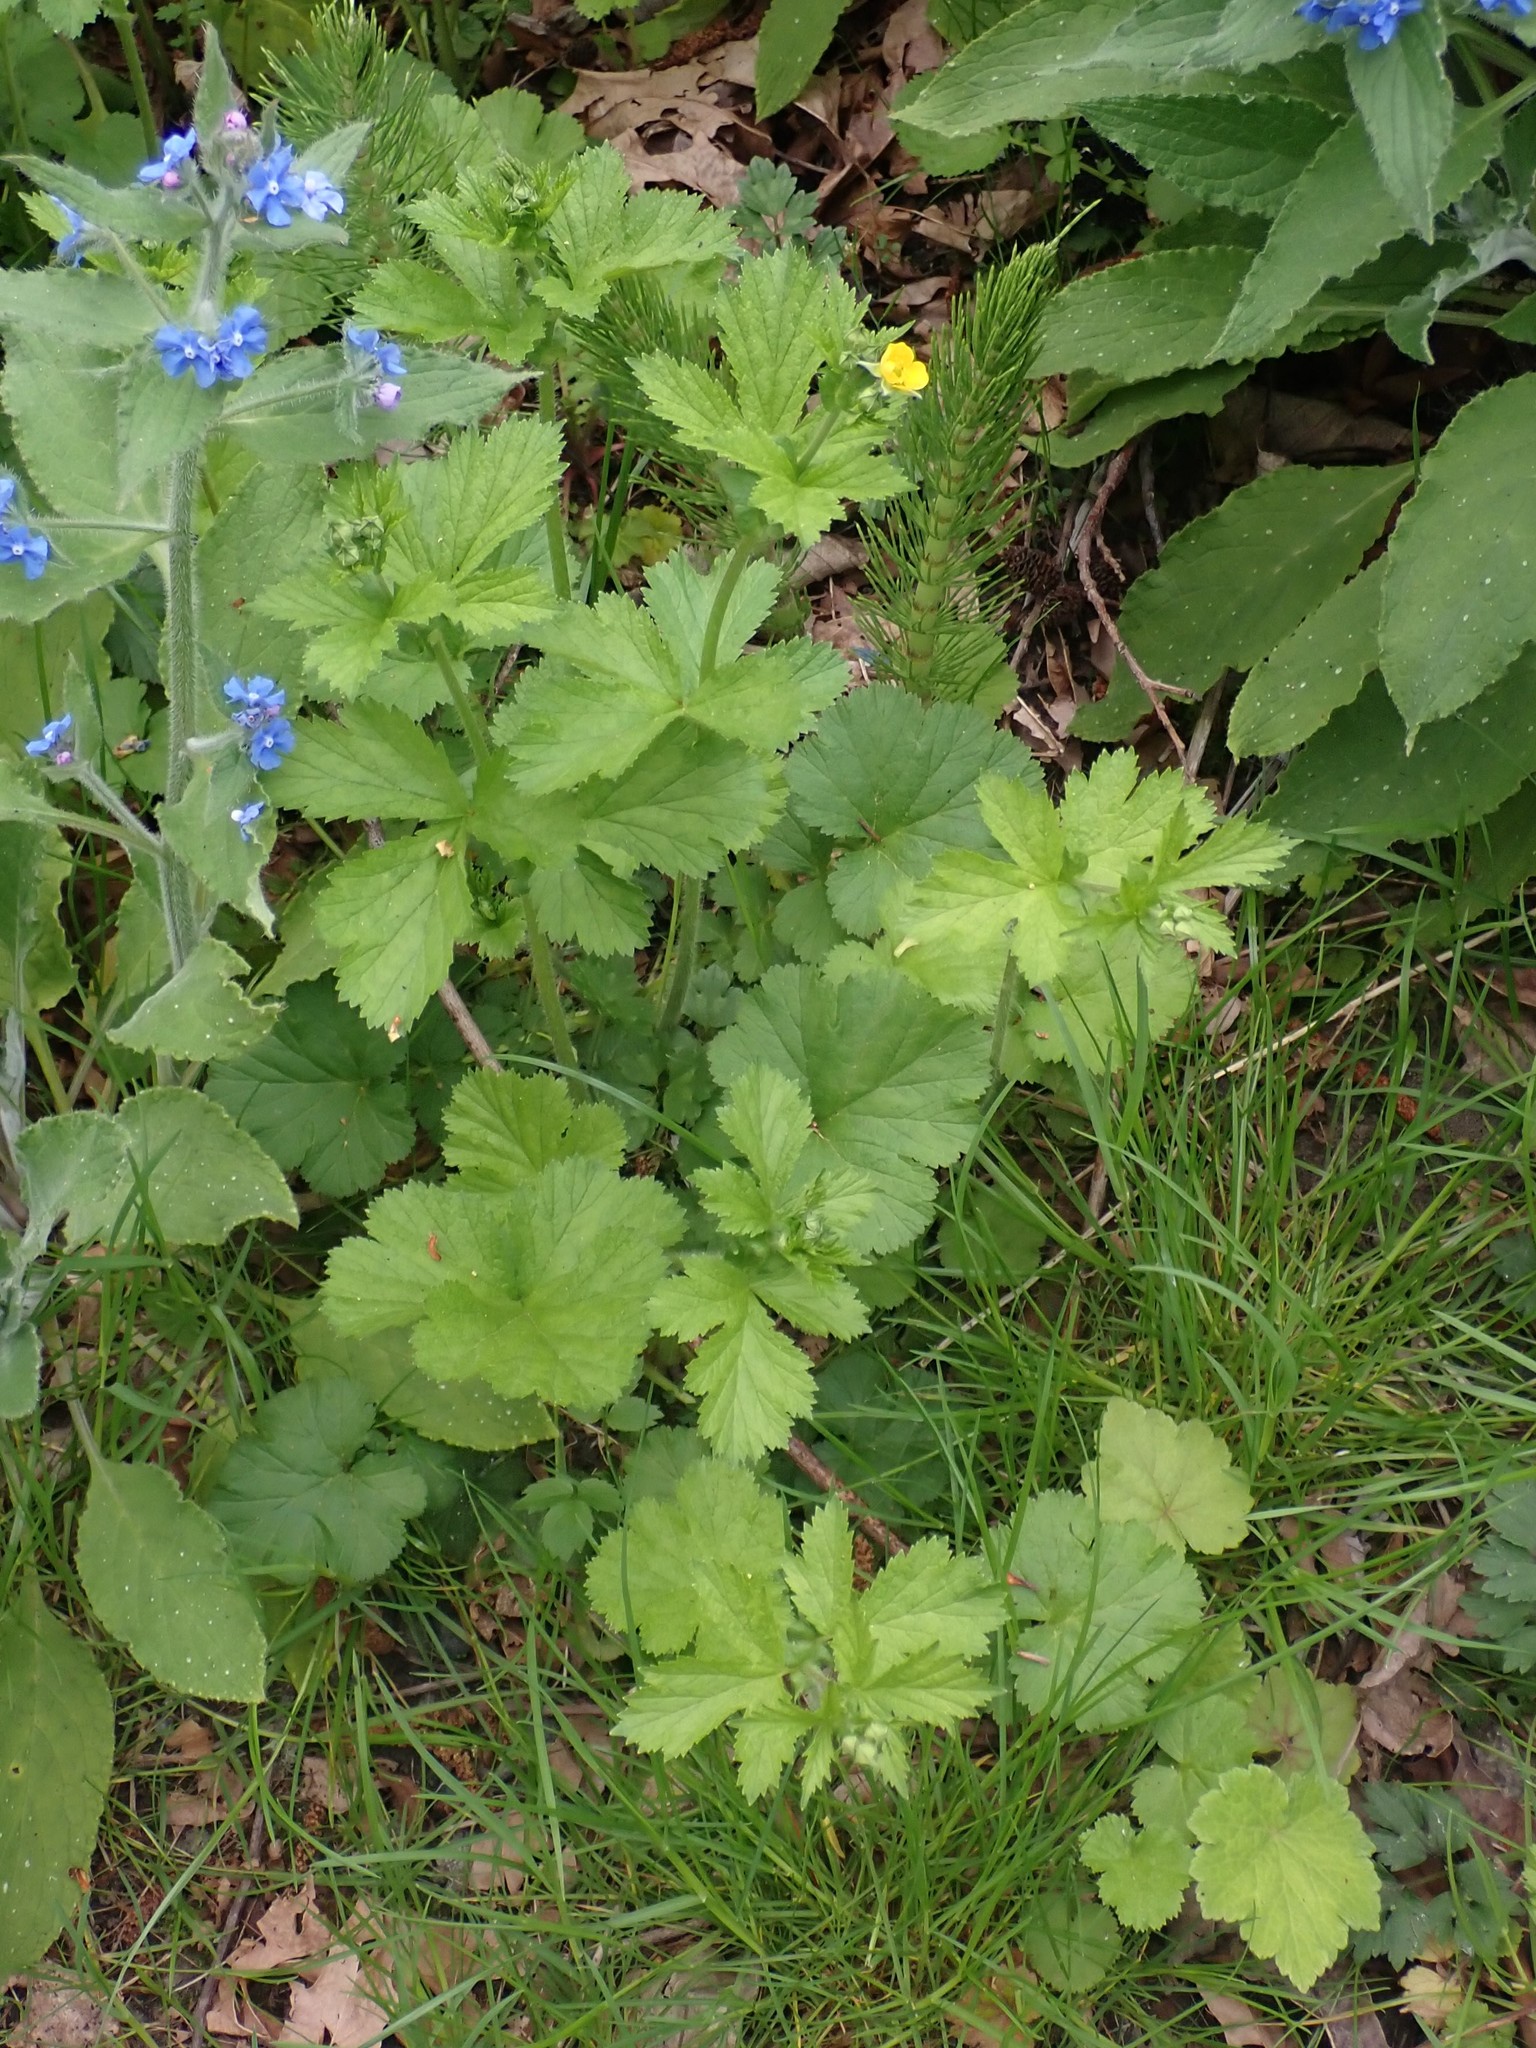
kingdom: Plantae
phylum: Tracheophyta
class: Magnoliopsida
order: Rosales
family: Rosaceae
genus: Geum
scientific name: Geum macrophyllum
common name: Large-leaved avens
